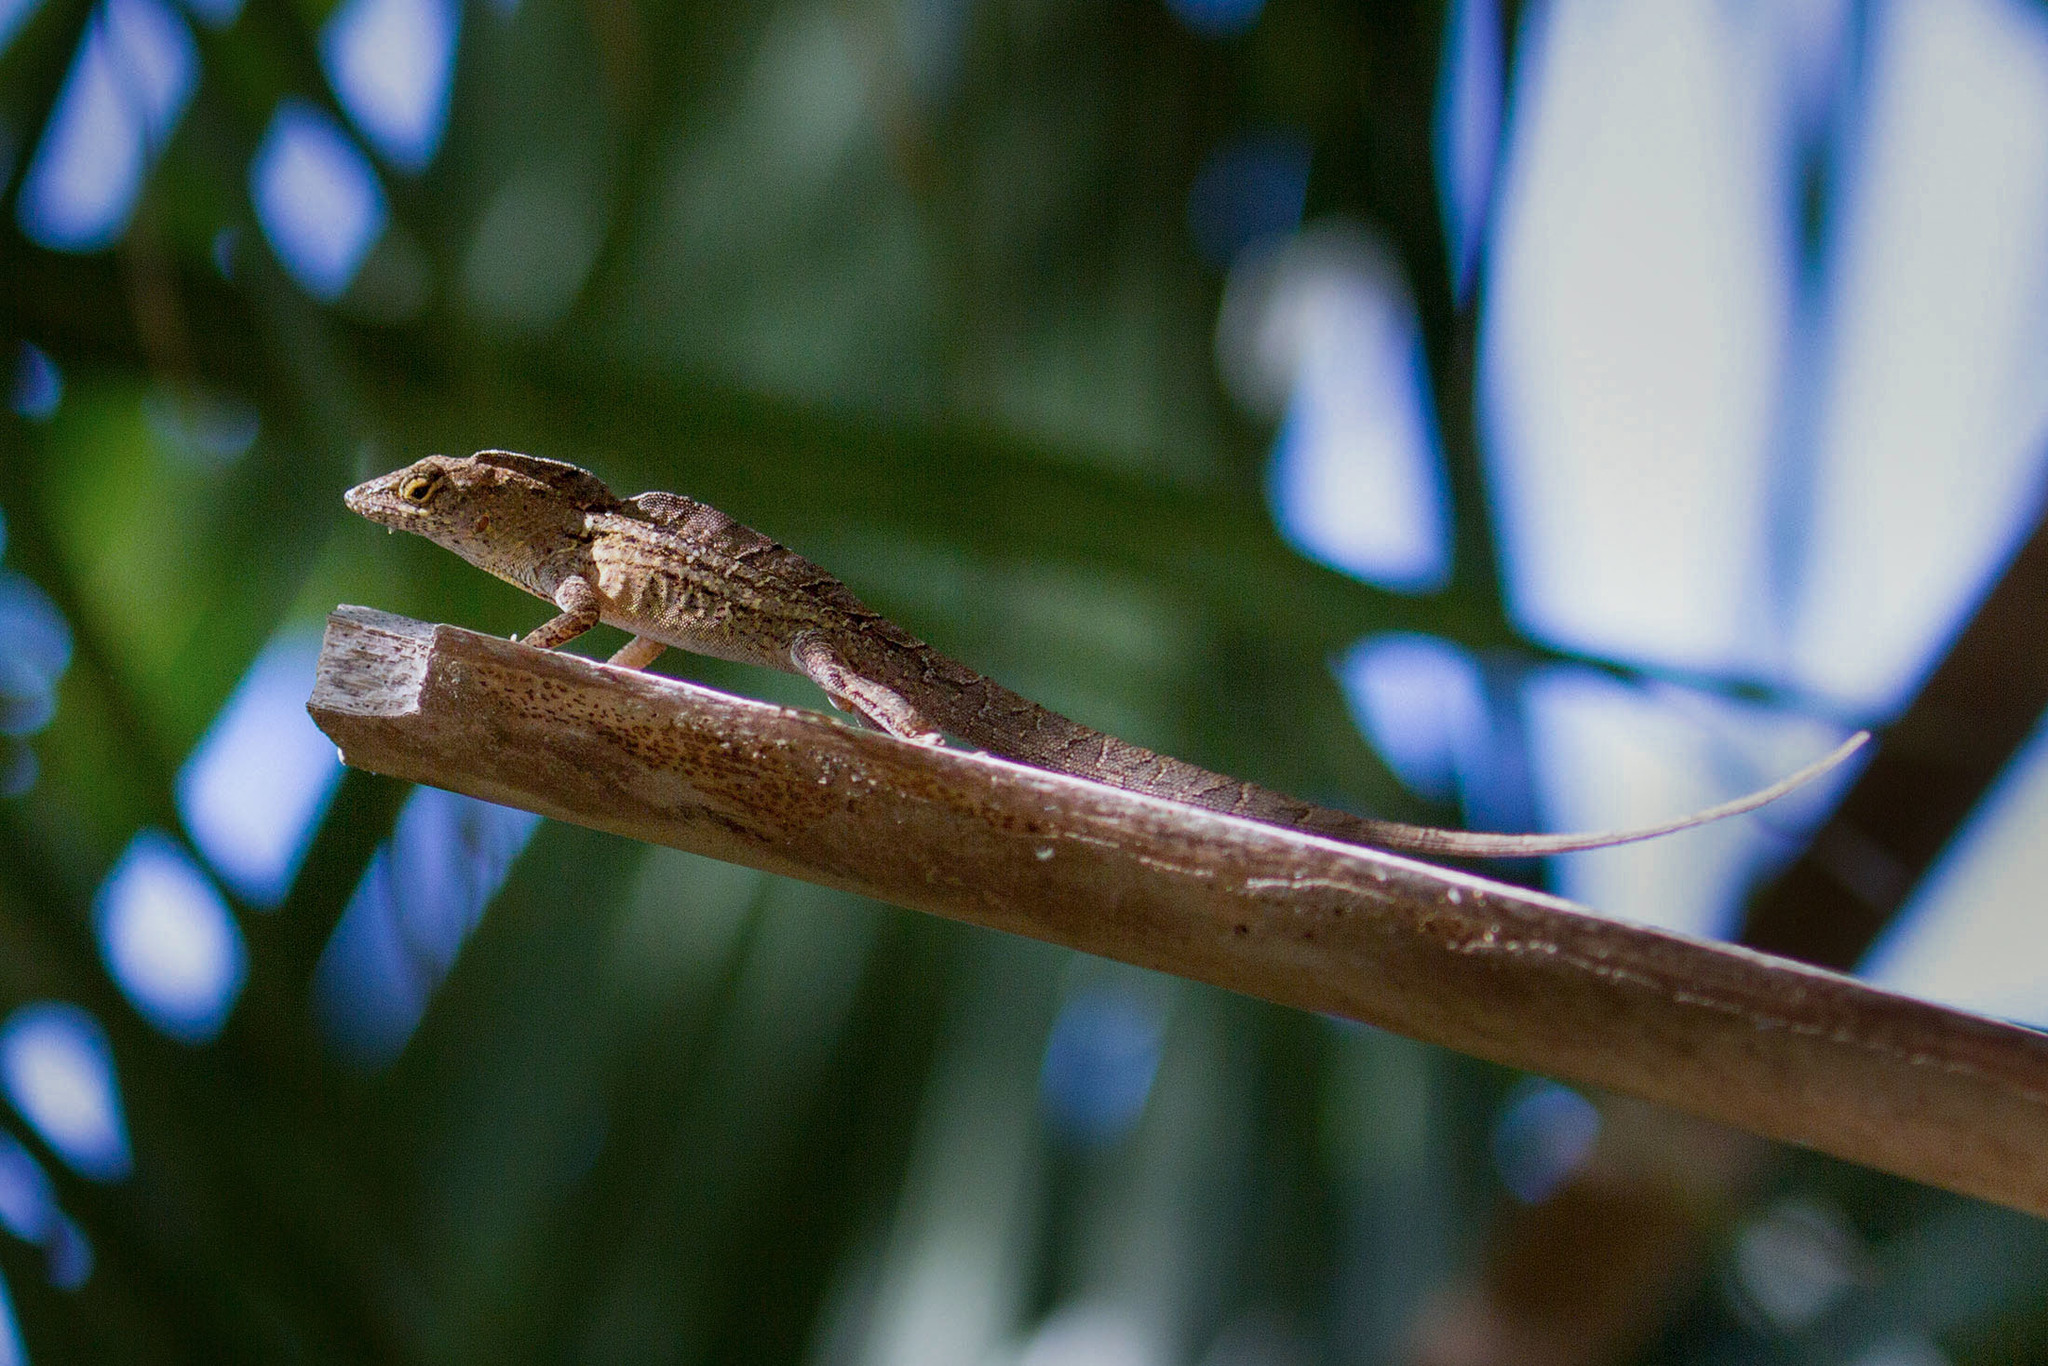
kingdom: Animalia
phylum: Chordata
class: Squamata
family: Dactyloidae
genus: Anolis
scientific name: Anolis sagrei
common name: Brown anole
